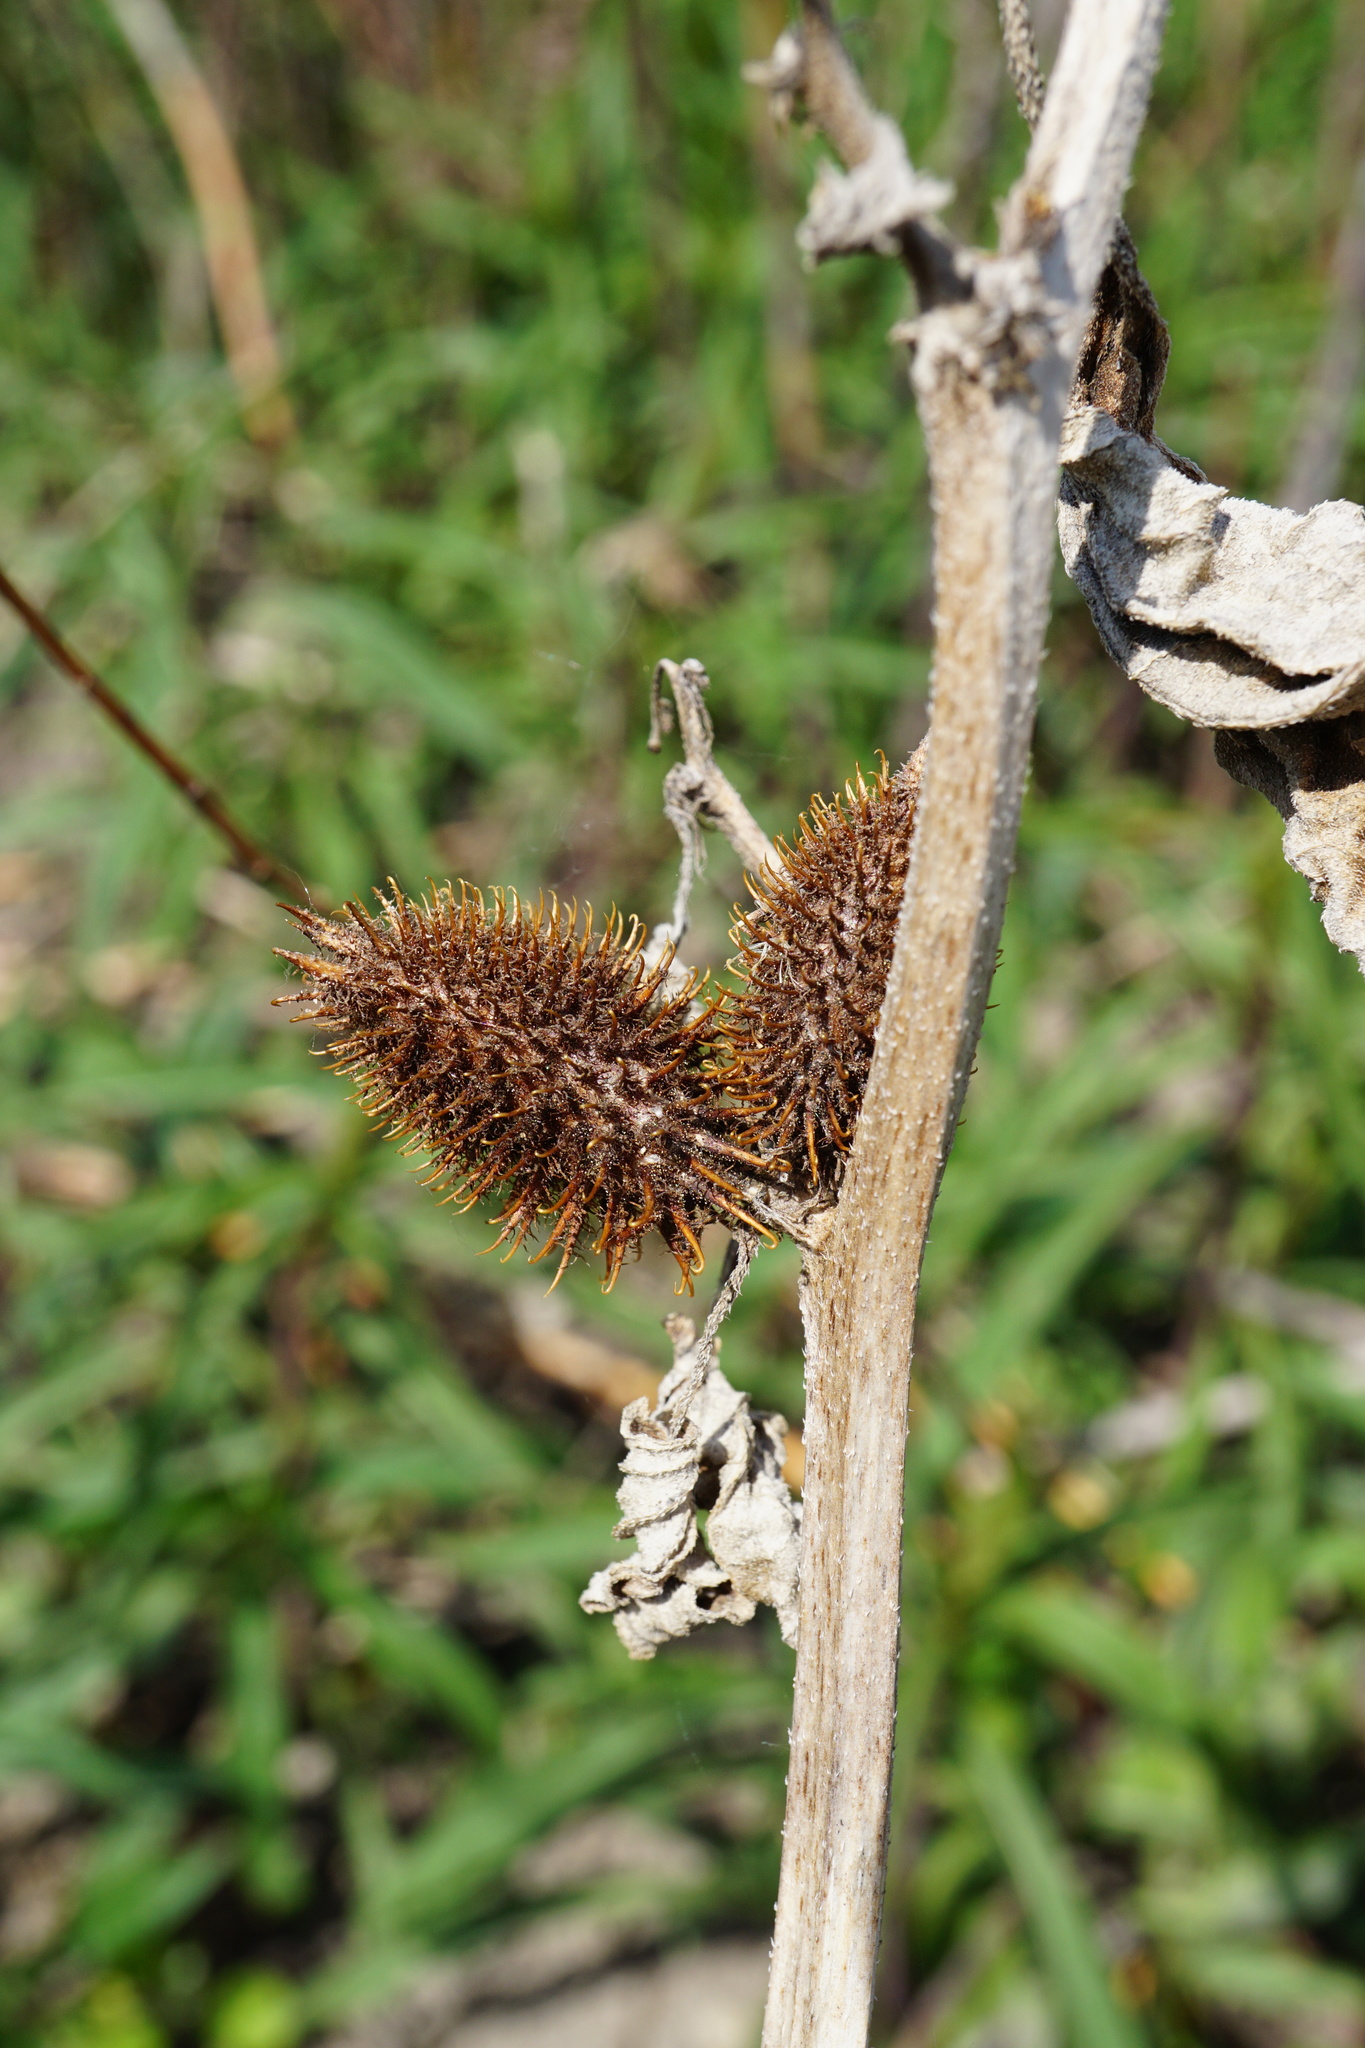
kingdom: Plantae
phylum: Tracheophyta
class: Magnoliopsida
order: Asterales
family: Asteraceae
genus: Xanthium
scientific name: Xanthium strumarium
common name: Rough cocklebur
